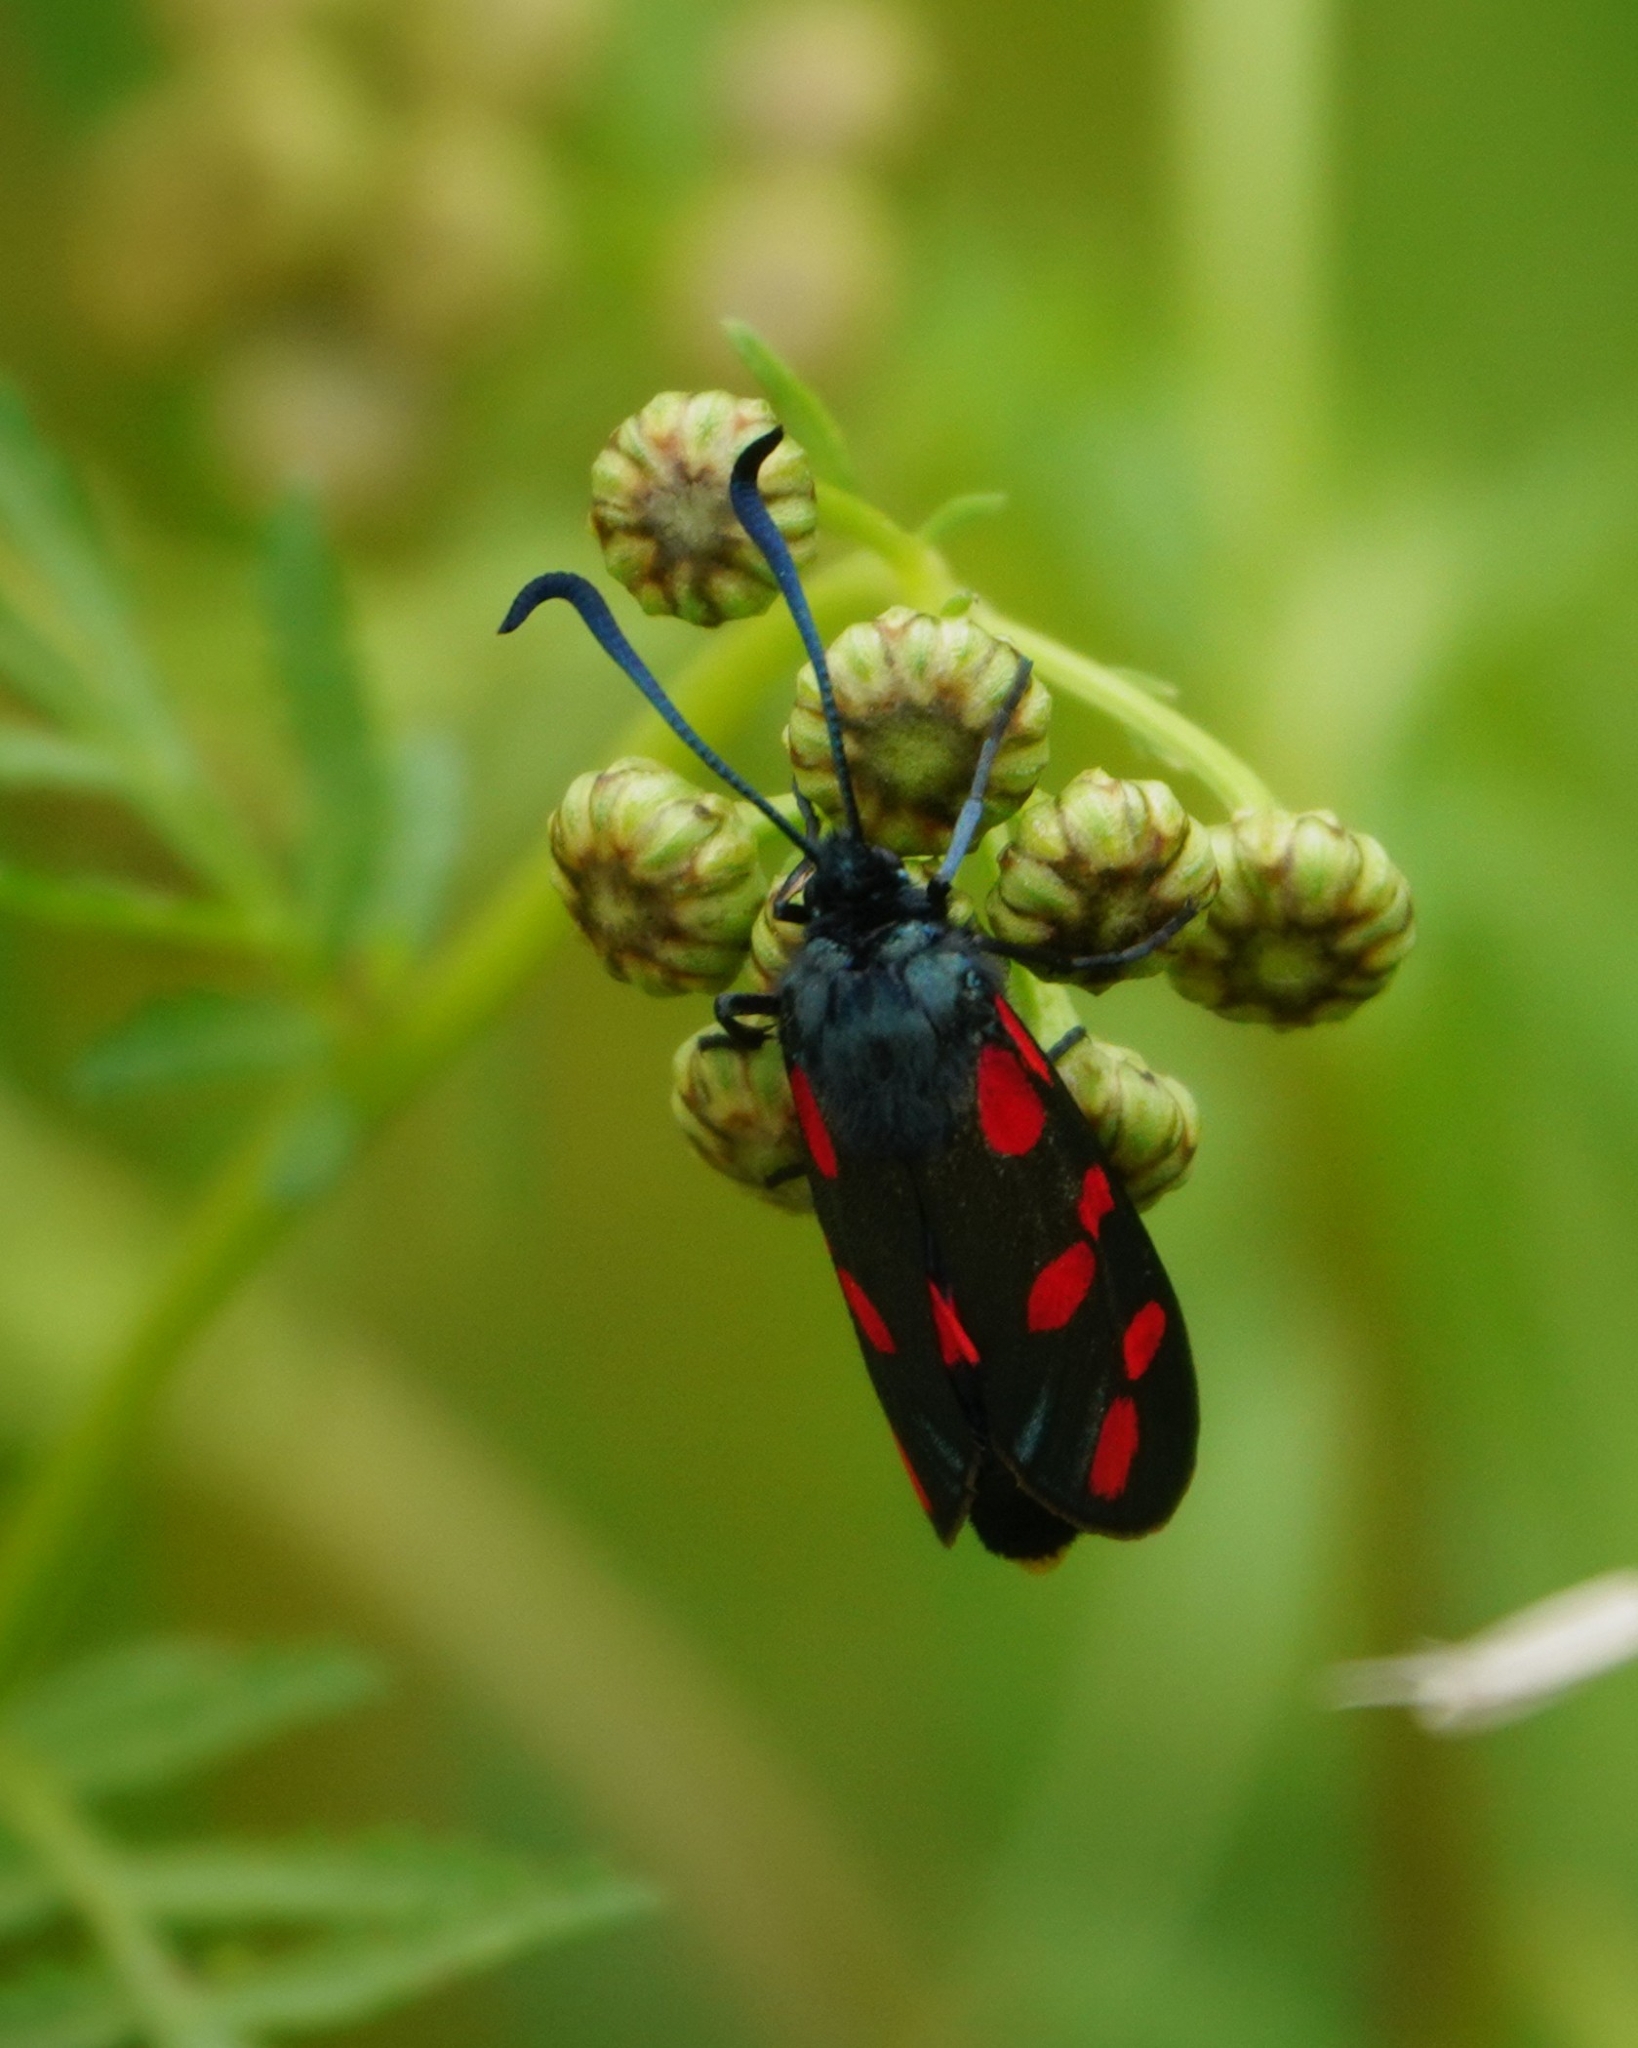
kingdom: Animalia
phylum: Arthropoda
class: Insecta
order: Lepidoptera
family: Zygaenidae
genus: Zygaena
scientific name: Zygaena filipendulae
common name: Six-spot burnet
